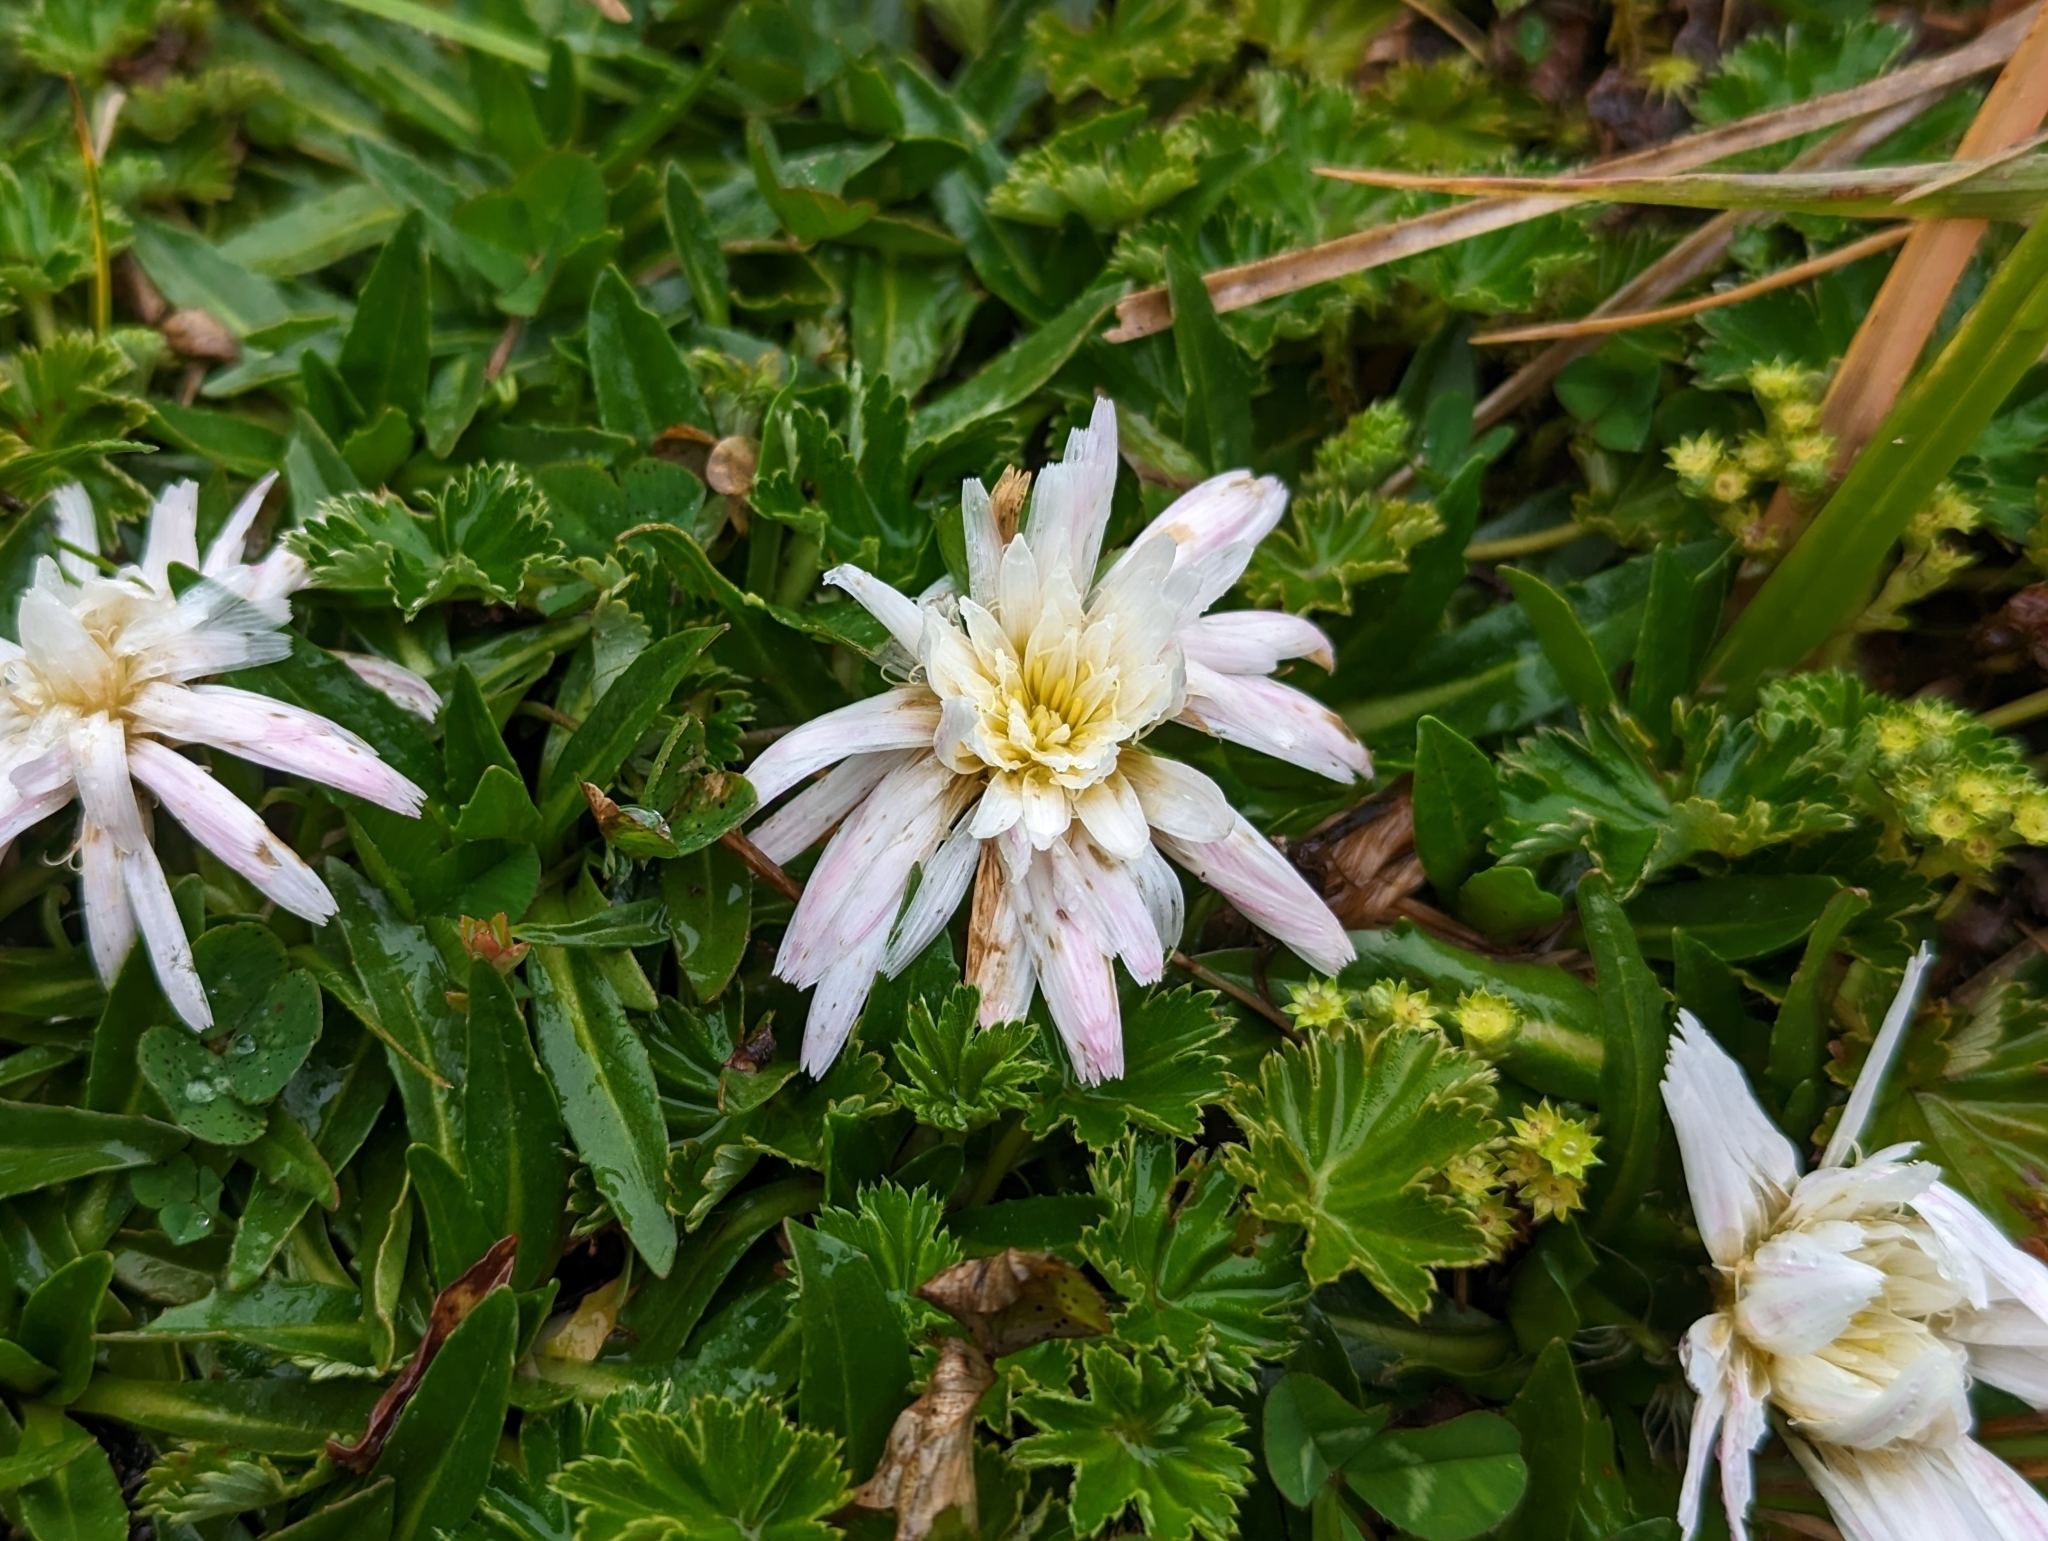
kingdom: Plantae
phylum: Tracheophyta
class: Magnoliopsida
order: Asterales
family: Asteraceae
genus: Hypochaeris
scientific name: Hypochaeris sessiliflora
